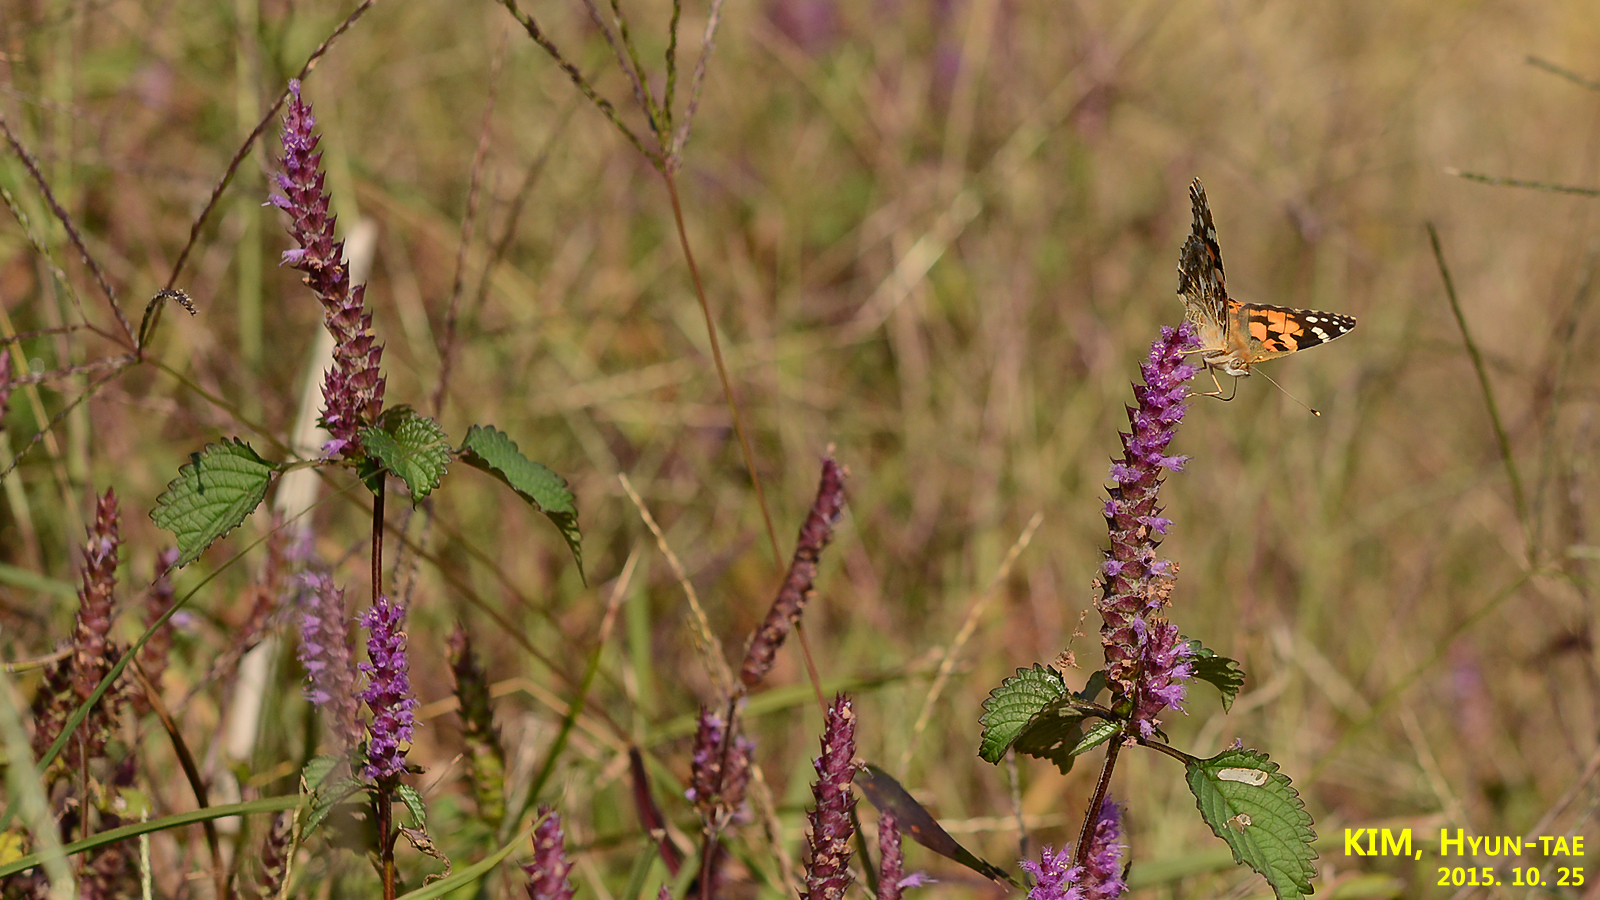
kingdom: Animalia
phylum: Arthropoda
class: Insecta
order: Lepidoptera
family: Nymphalidae
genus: Vanessa
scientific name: Vanessa cardui
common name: Painted lady
